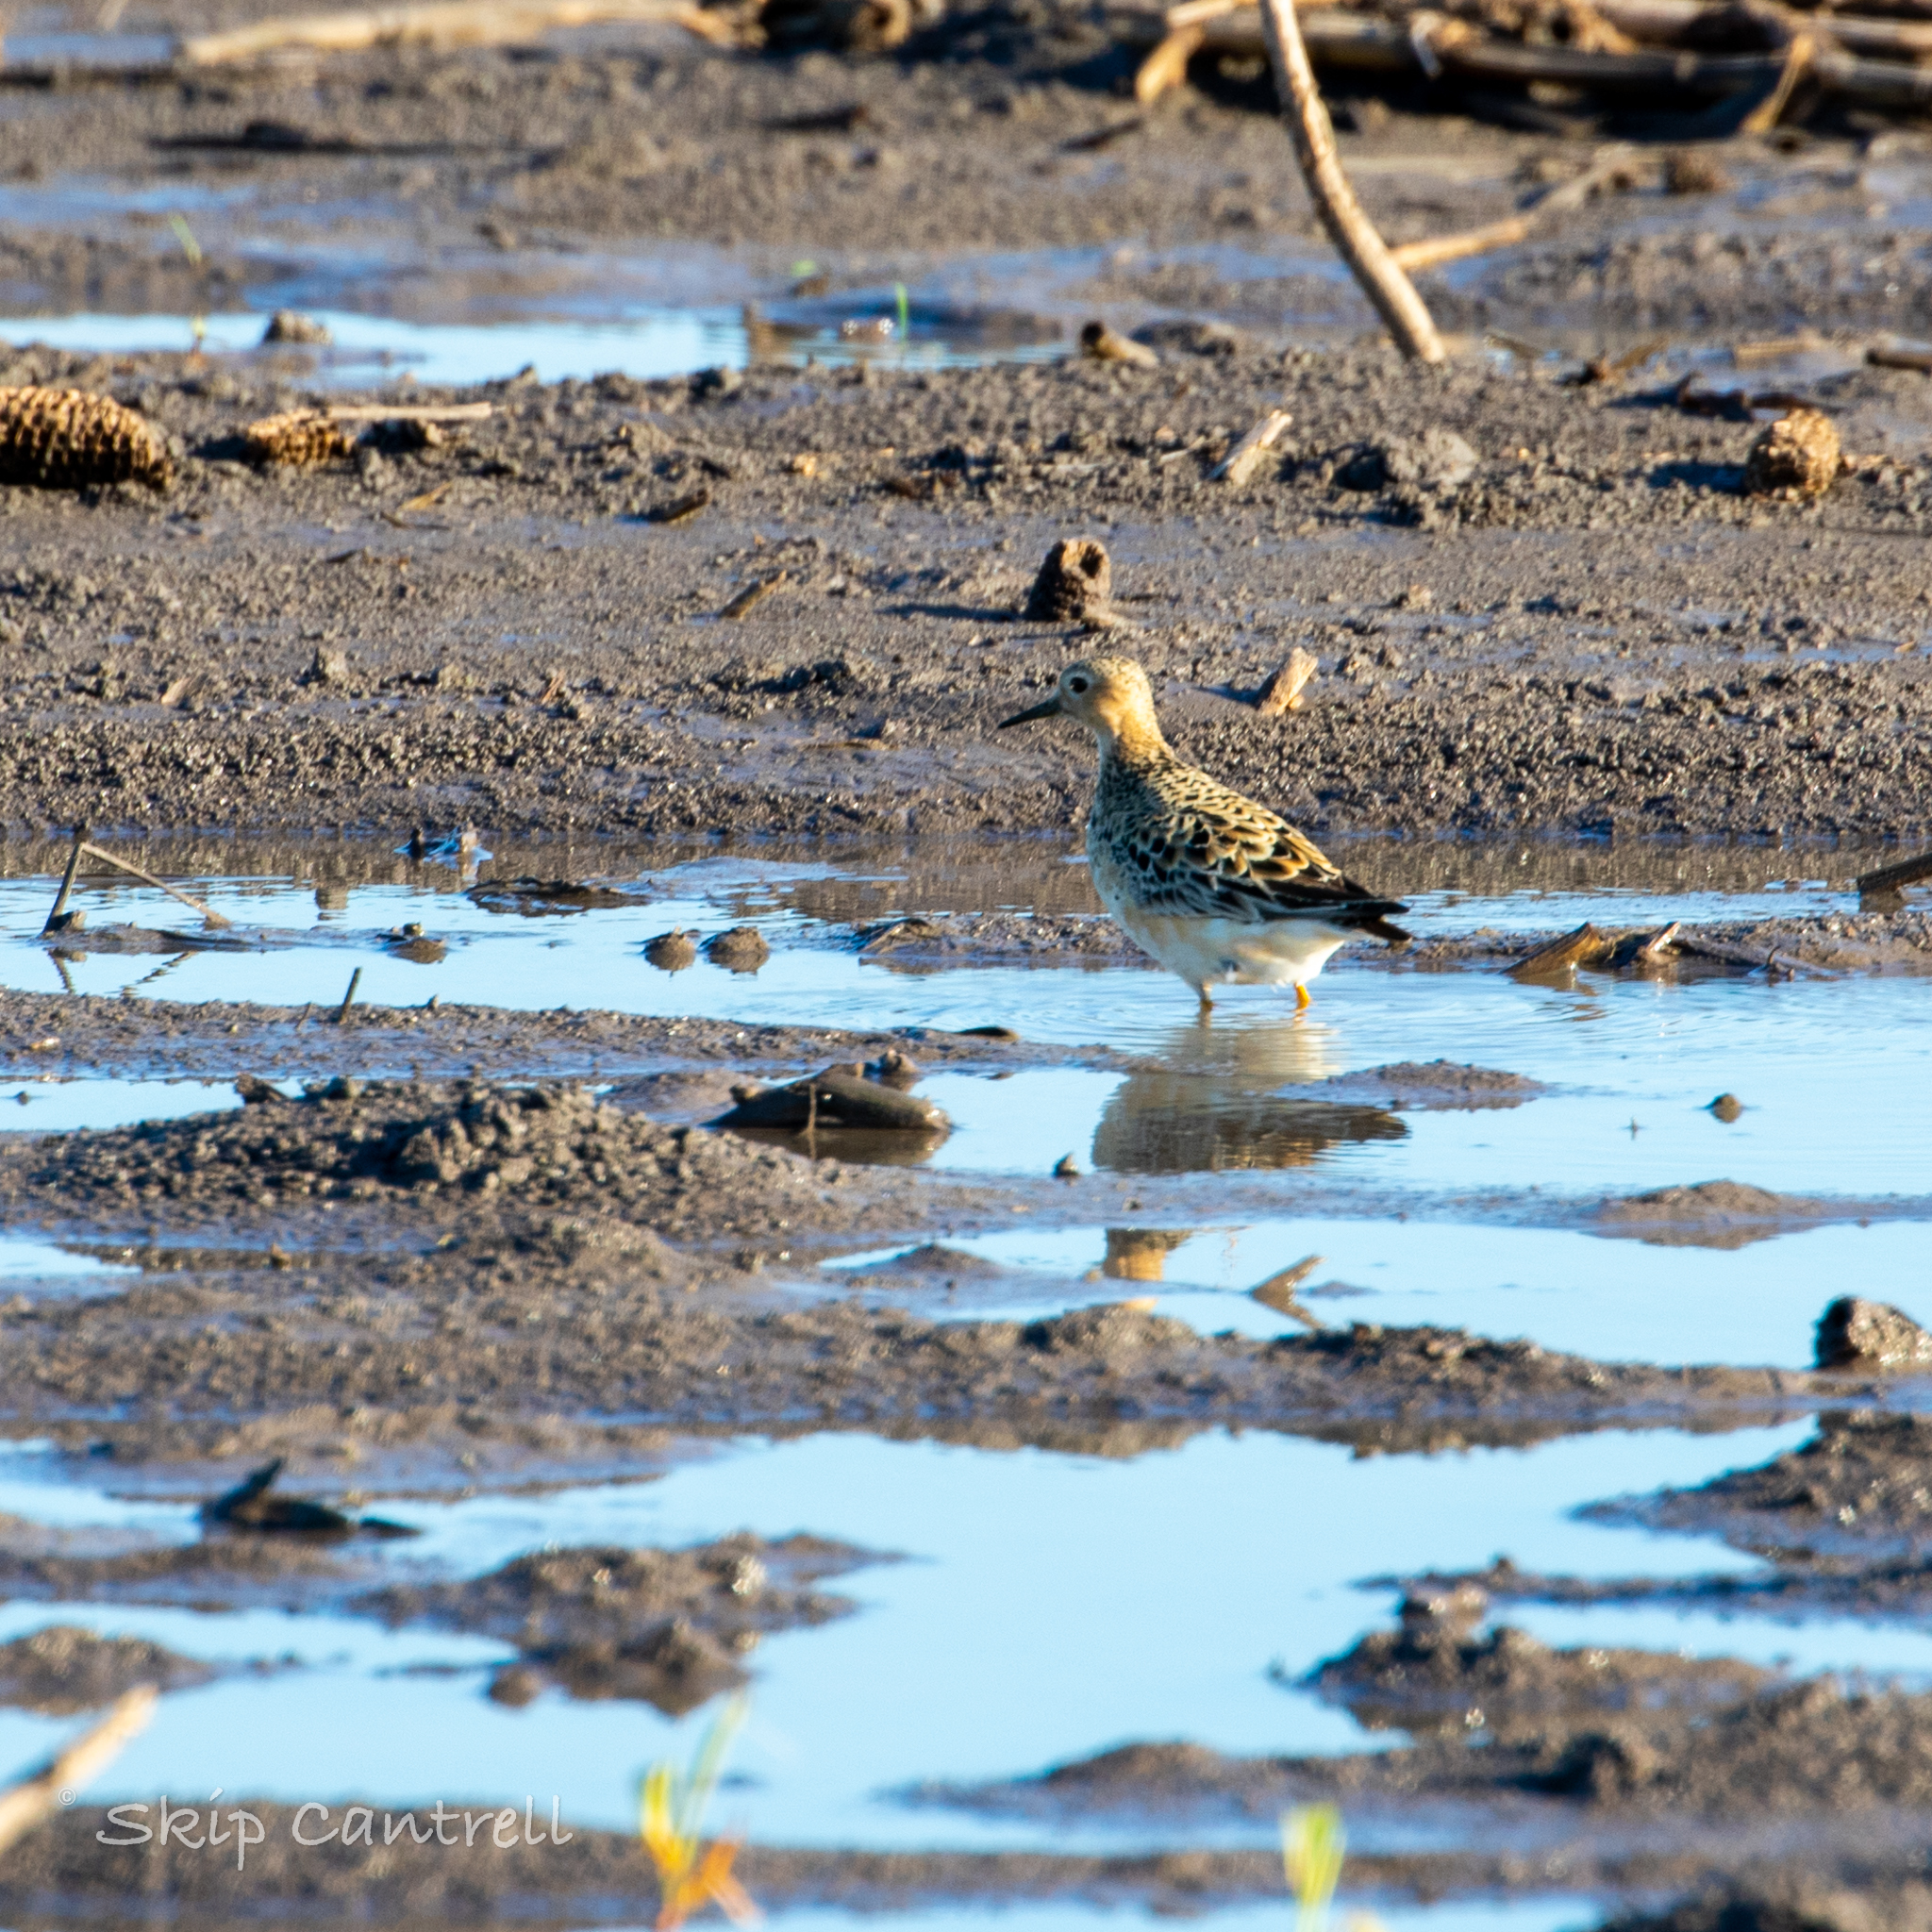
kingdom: Animalia
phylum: Chordata
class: Aves
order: Charadriiformes
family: Scolopacidae
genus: Calidris
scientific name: Calidris subruficollis
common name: Buff-breasted sandpiper
